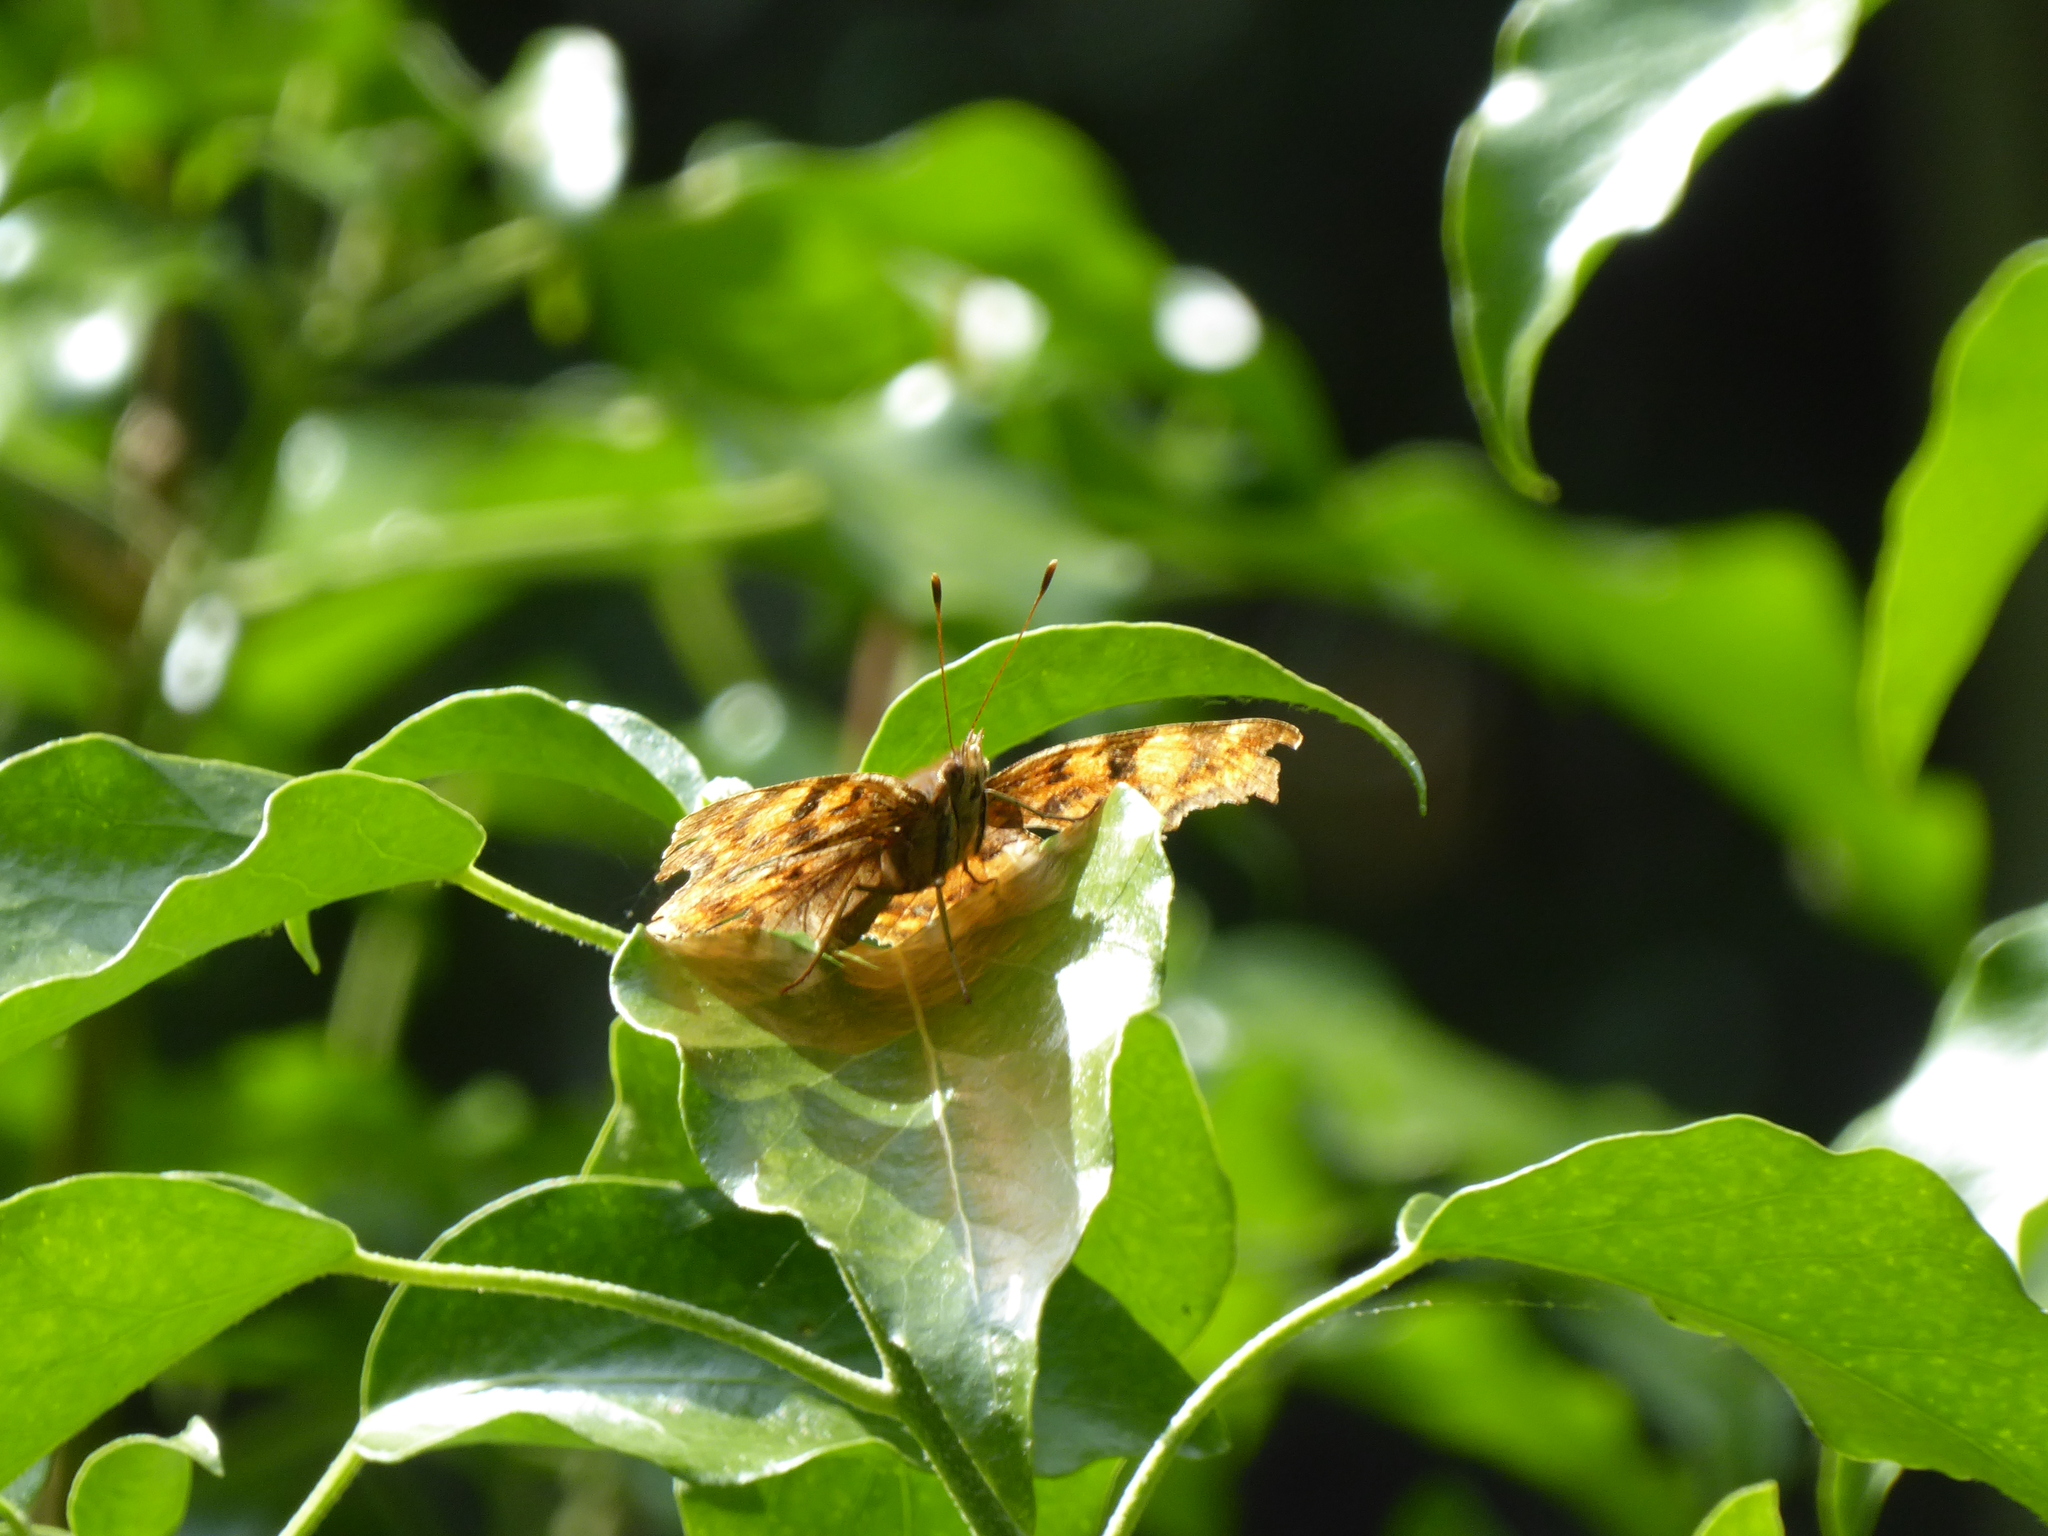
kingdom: Animalia
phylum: Arthropoda
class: Insecta
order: Lepidoptera
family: Nymphalidae
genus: Polygonia
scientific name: Polygonia c-album
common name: Comma
